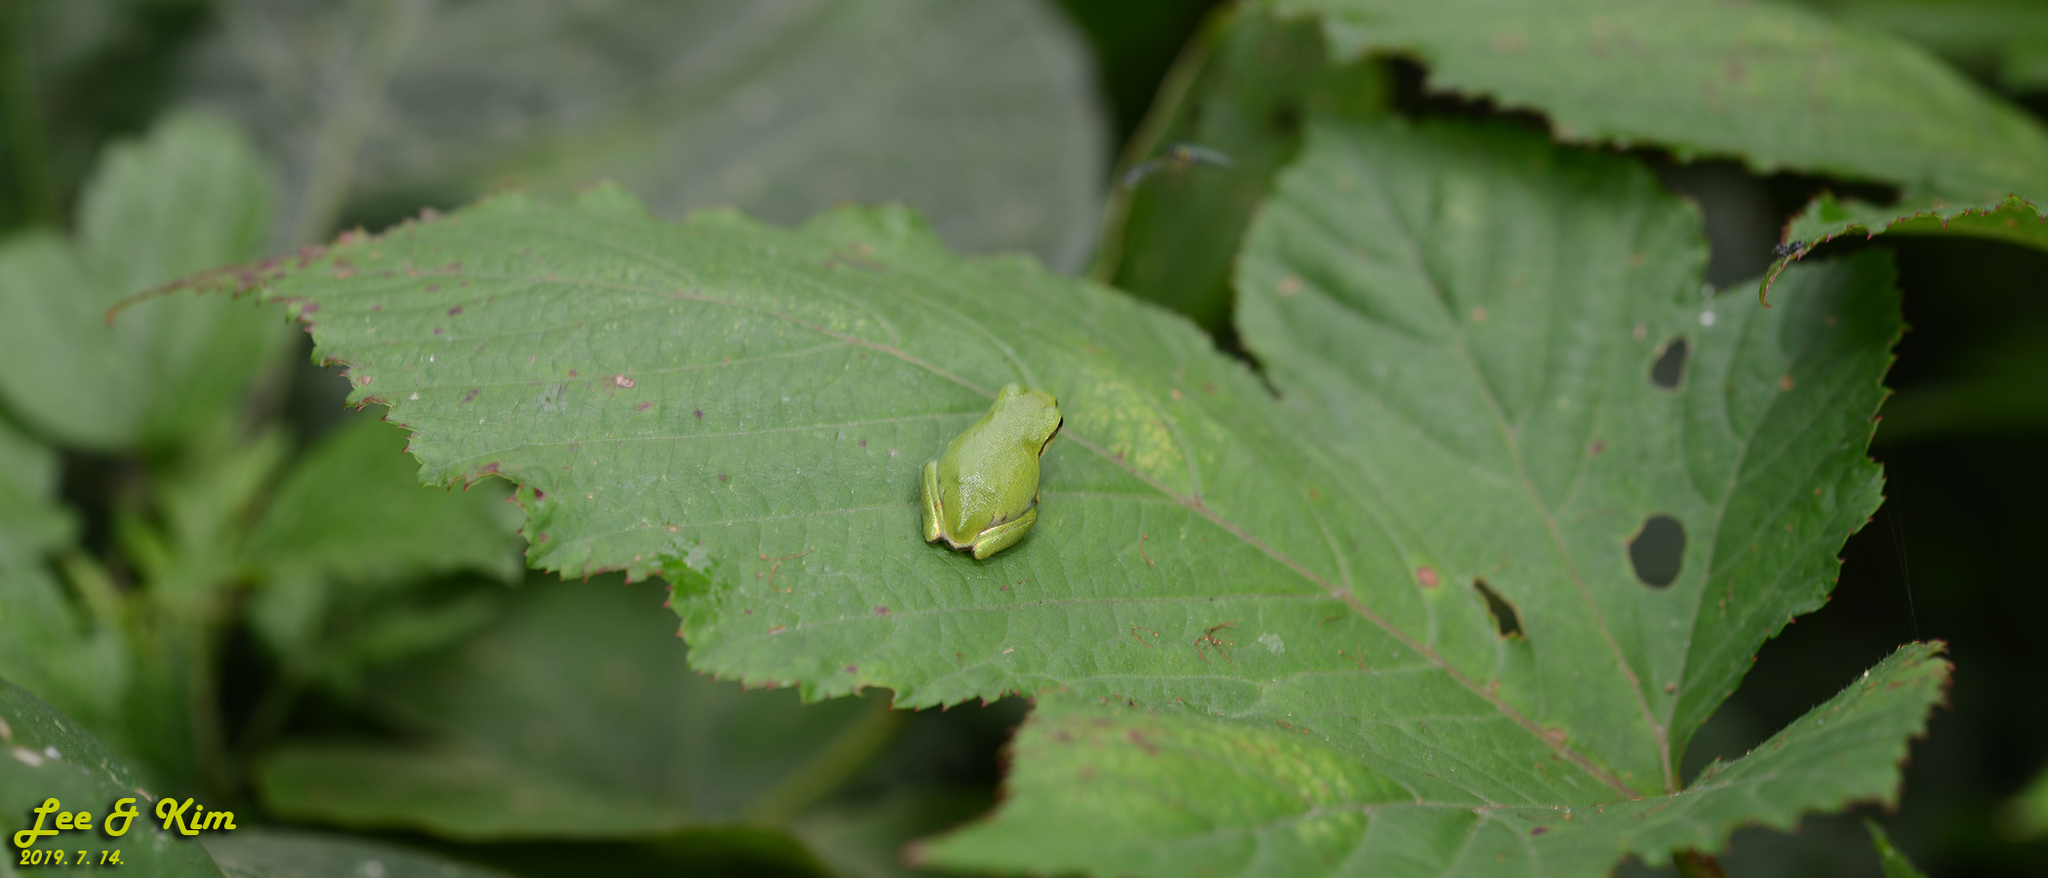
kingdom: Animalia
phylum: Chordata
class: Amphibia
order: Anura
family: Hylidae
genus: Dryophytes
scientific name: Dryophytes japonicus
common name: Japanese treefrog
